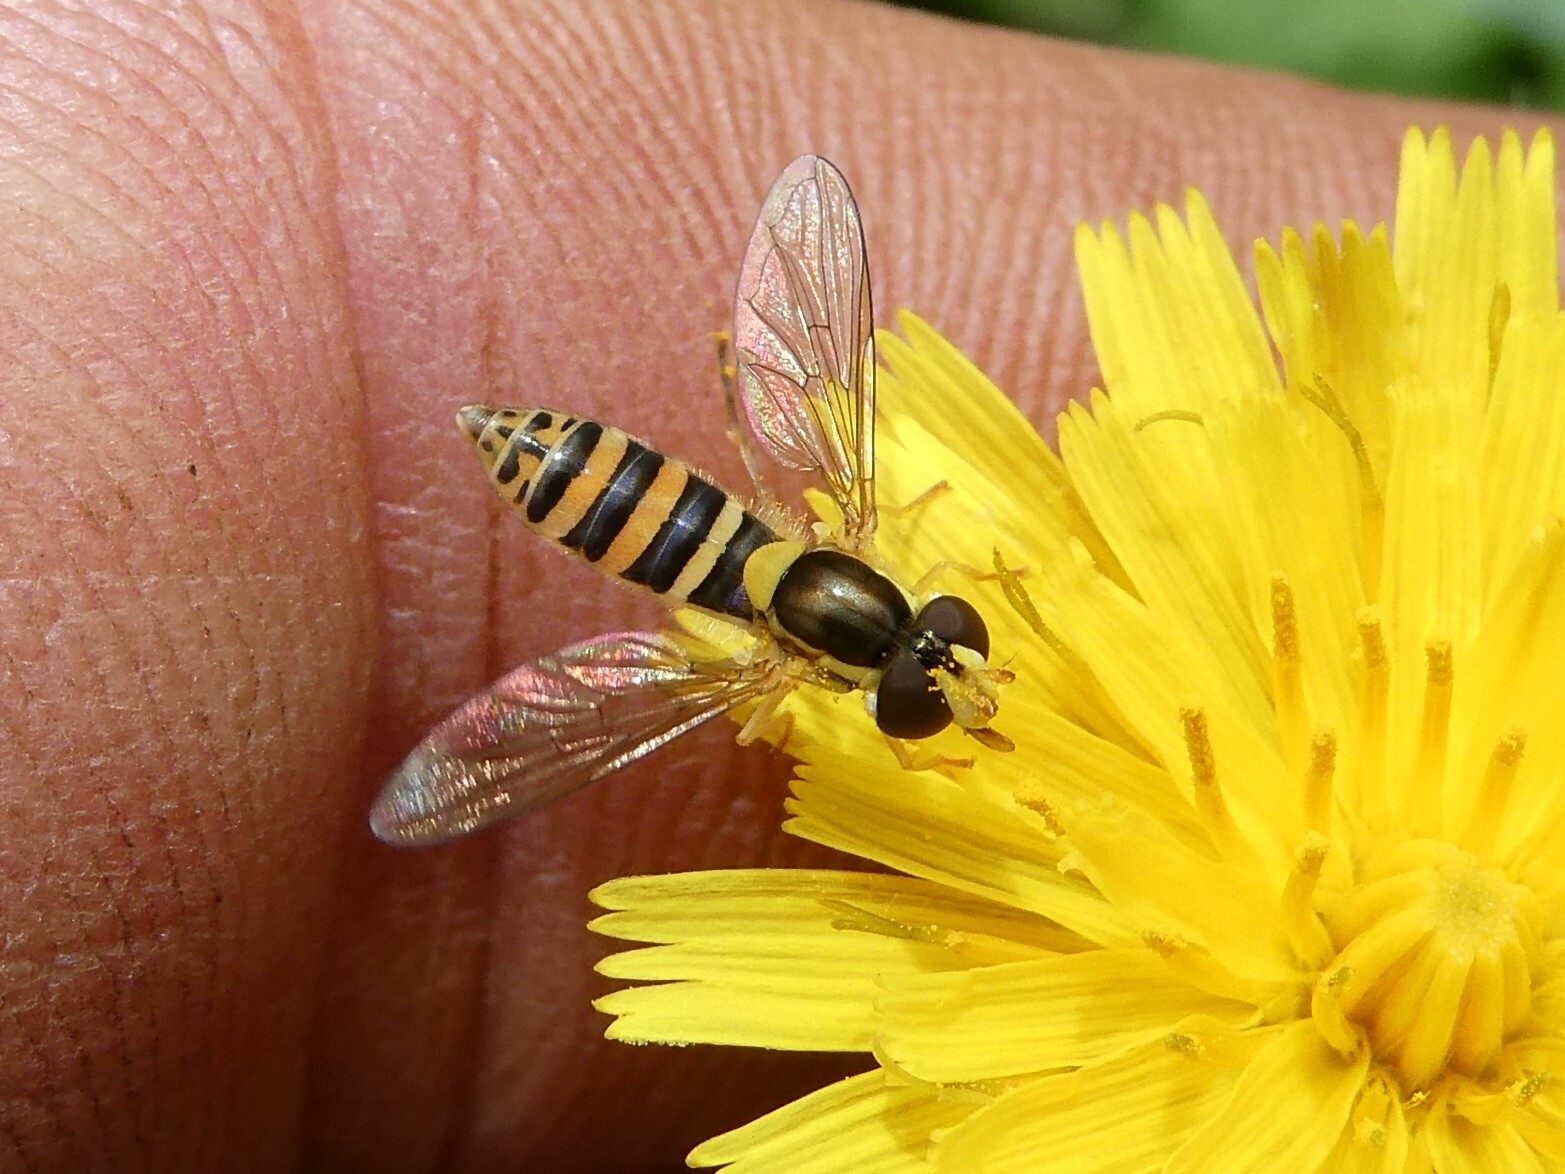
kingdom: Animalia
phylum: Arthropoda
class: Insecta
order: Diptera
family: Syrphidae
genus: Sphaerophoria
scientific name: Sphaerophoria
